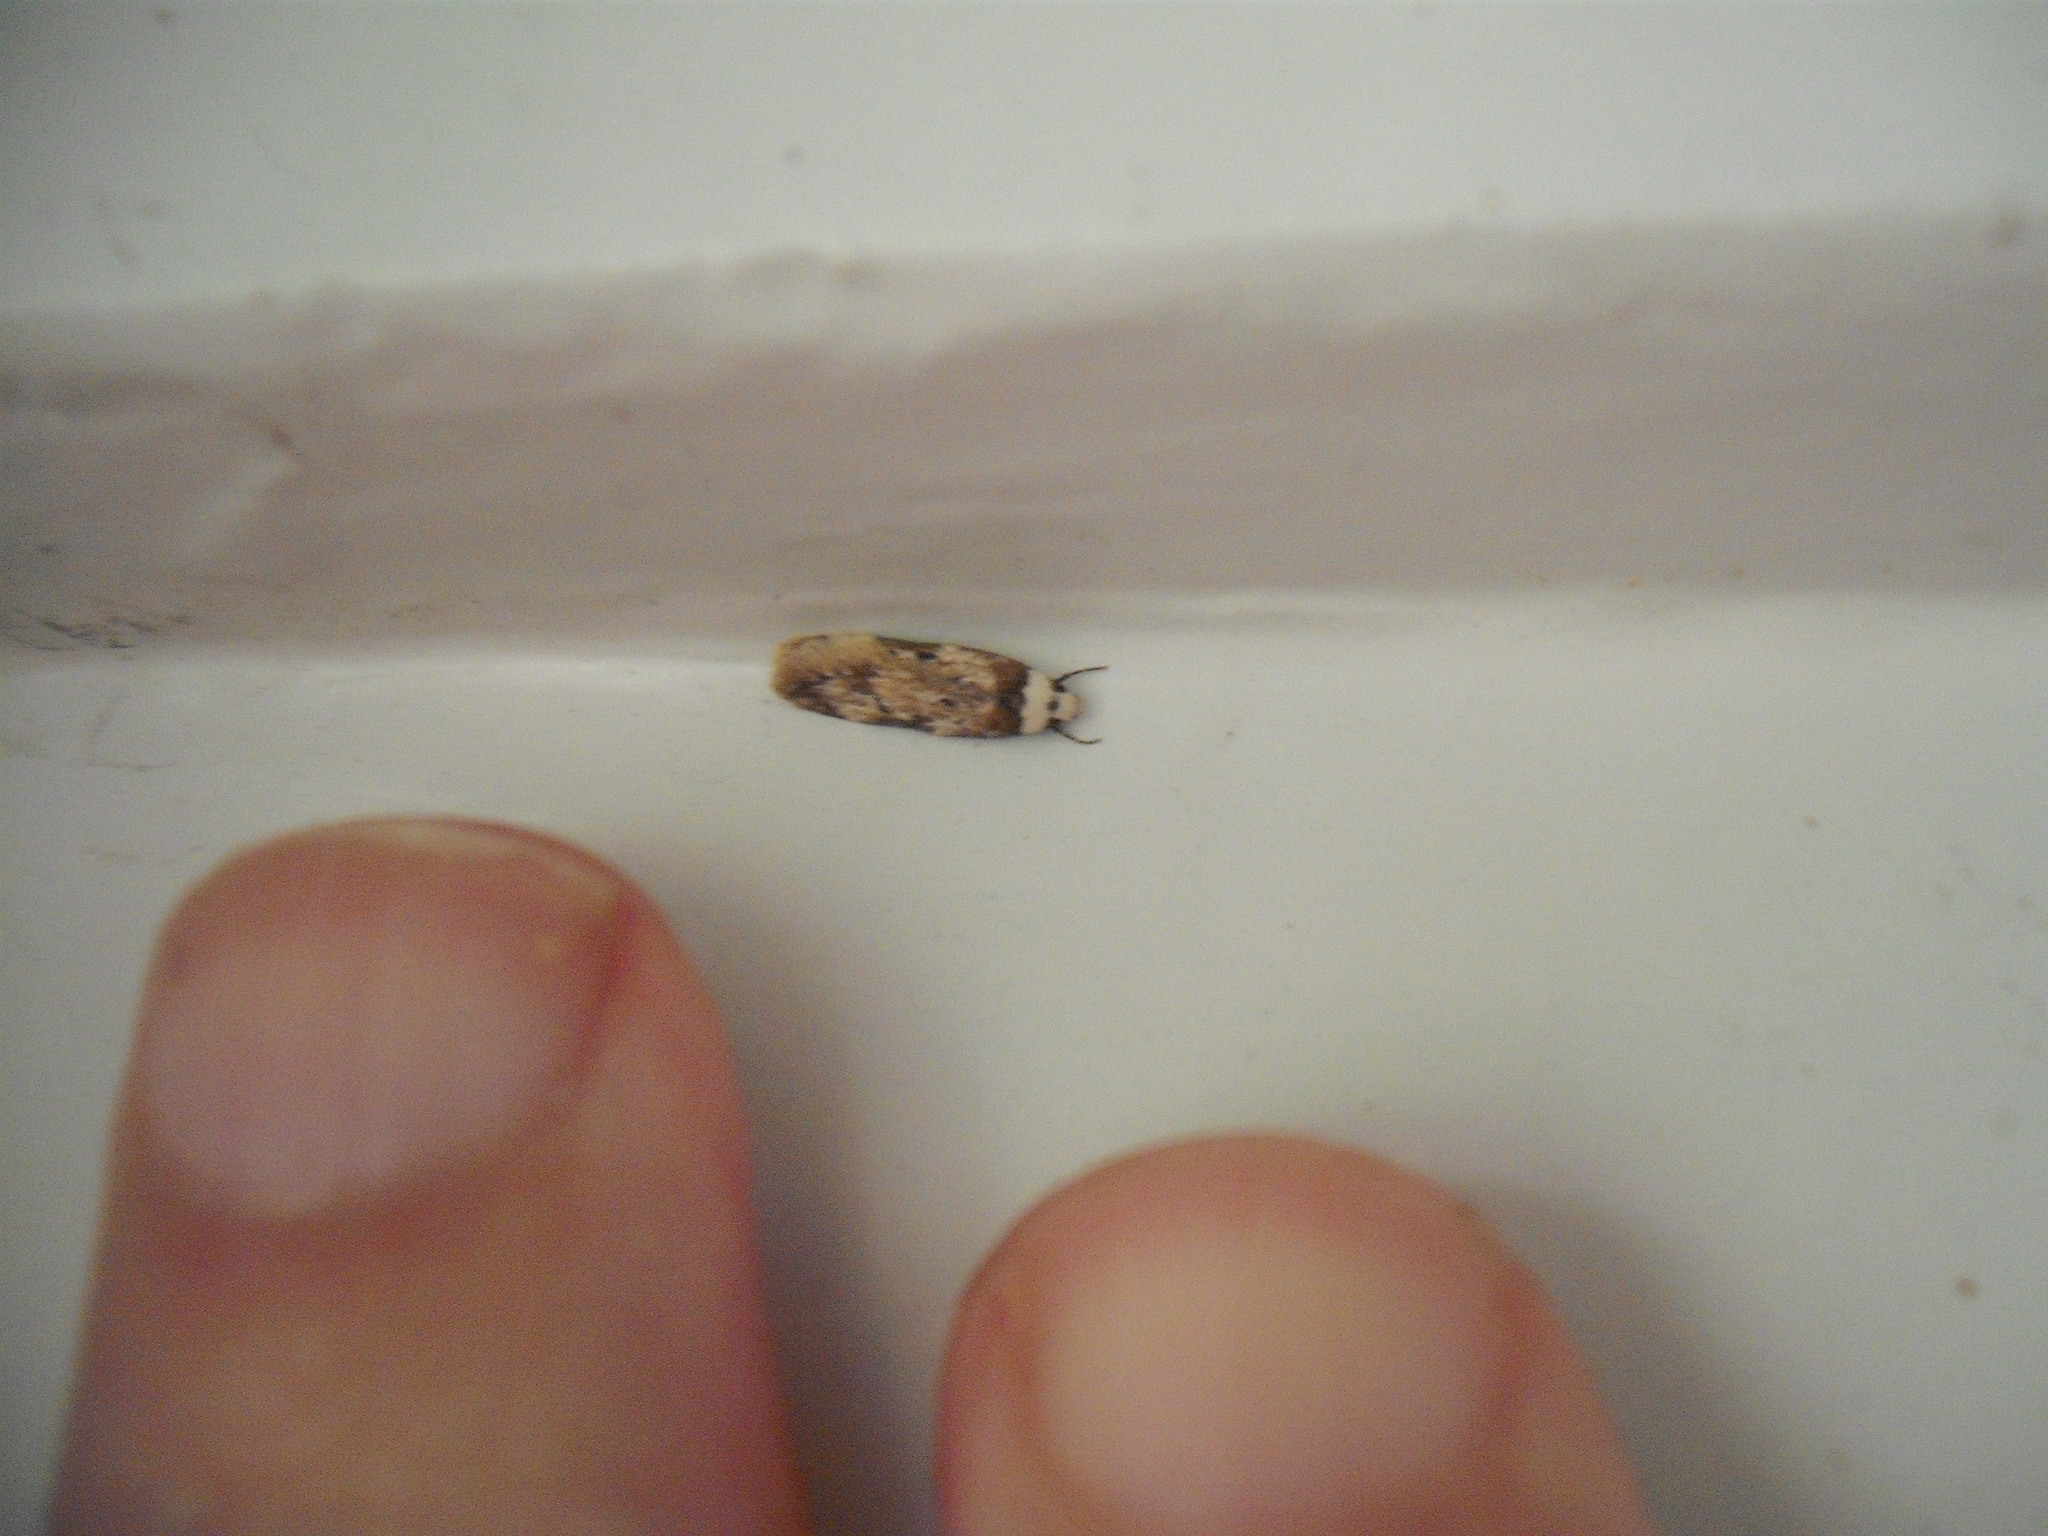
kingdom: Animalia
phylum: Arthropoda
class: Insecta
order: Lepidoptera
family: Oecophoridae
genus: Endrosis
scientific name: Endrosis sarcitrella
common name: White-shouldered house moth
